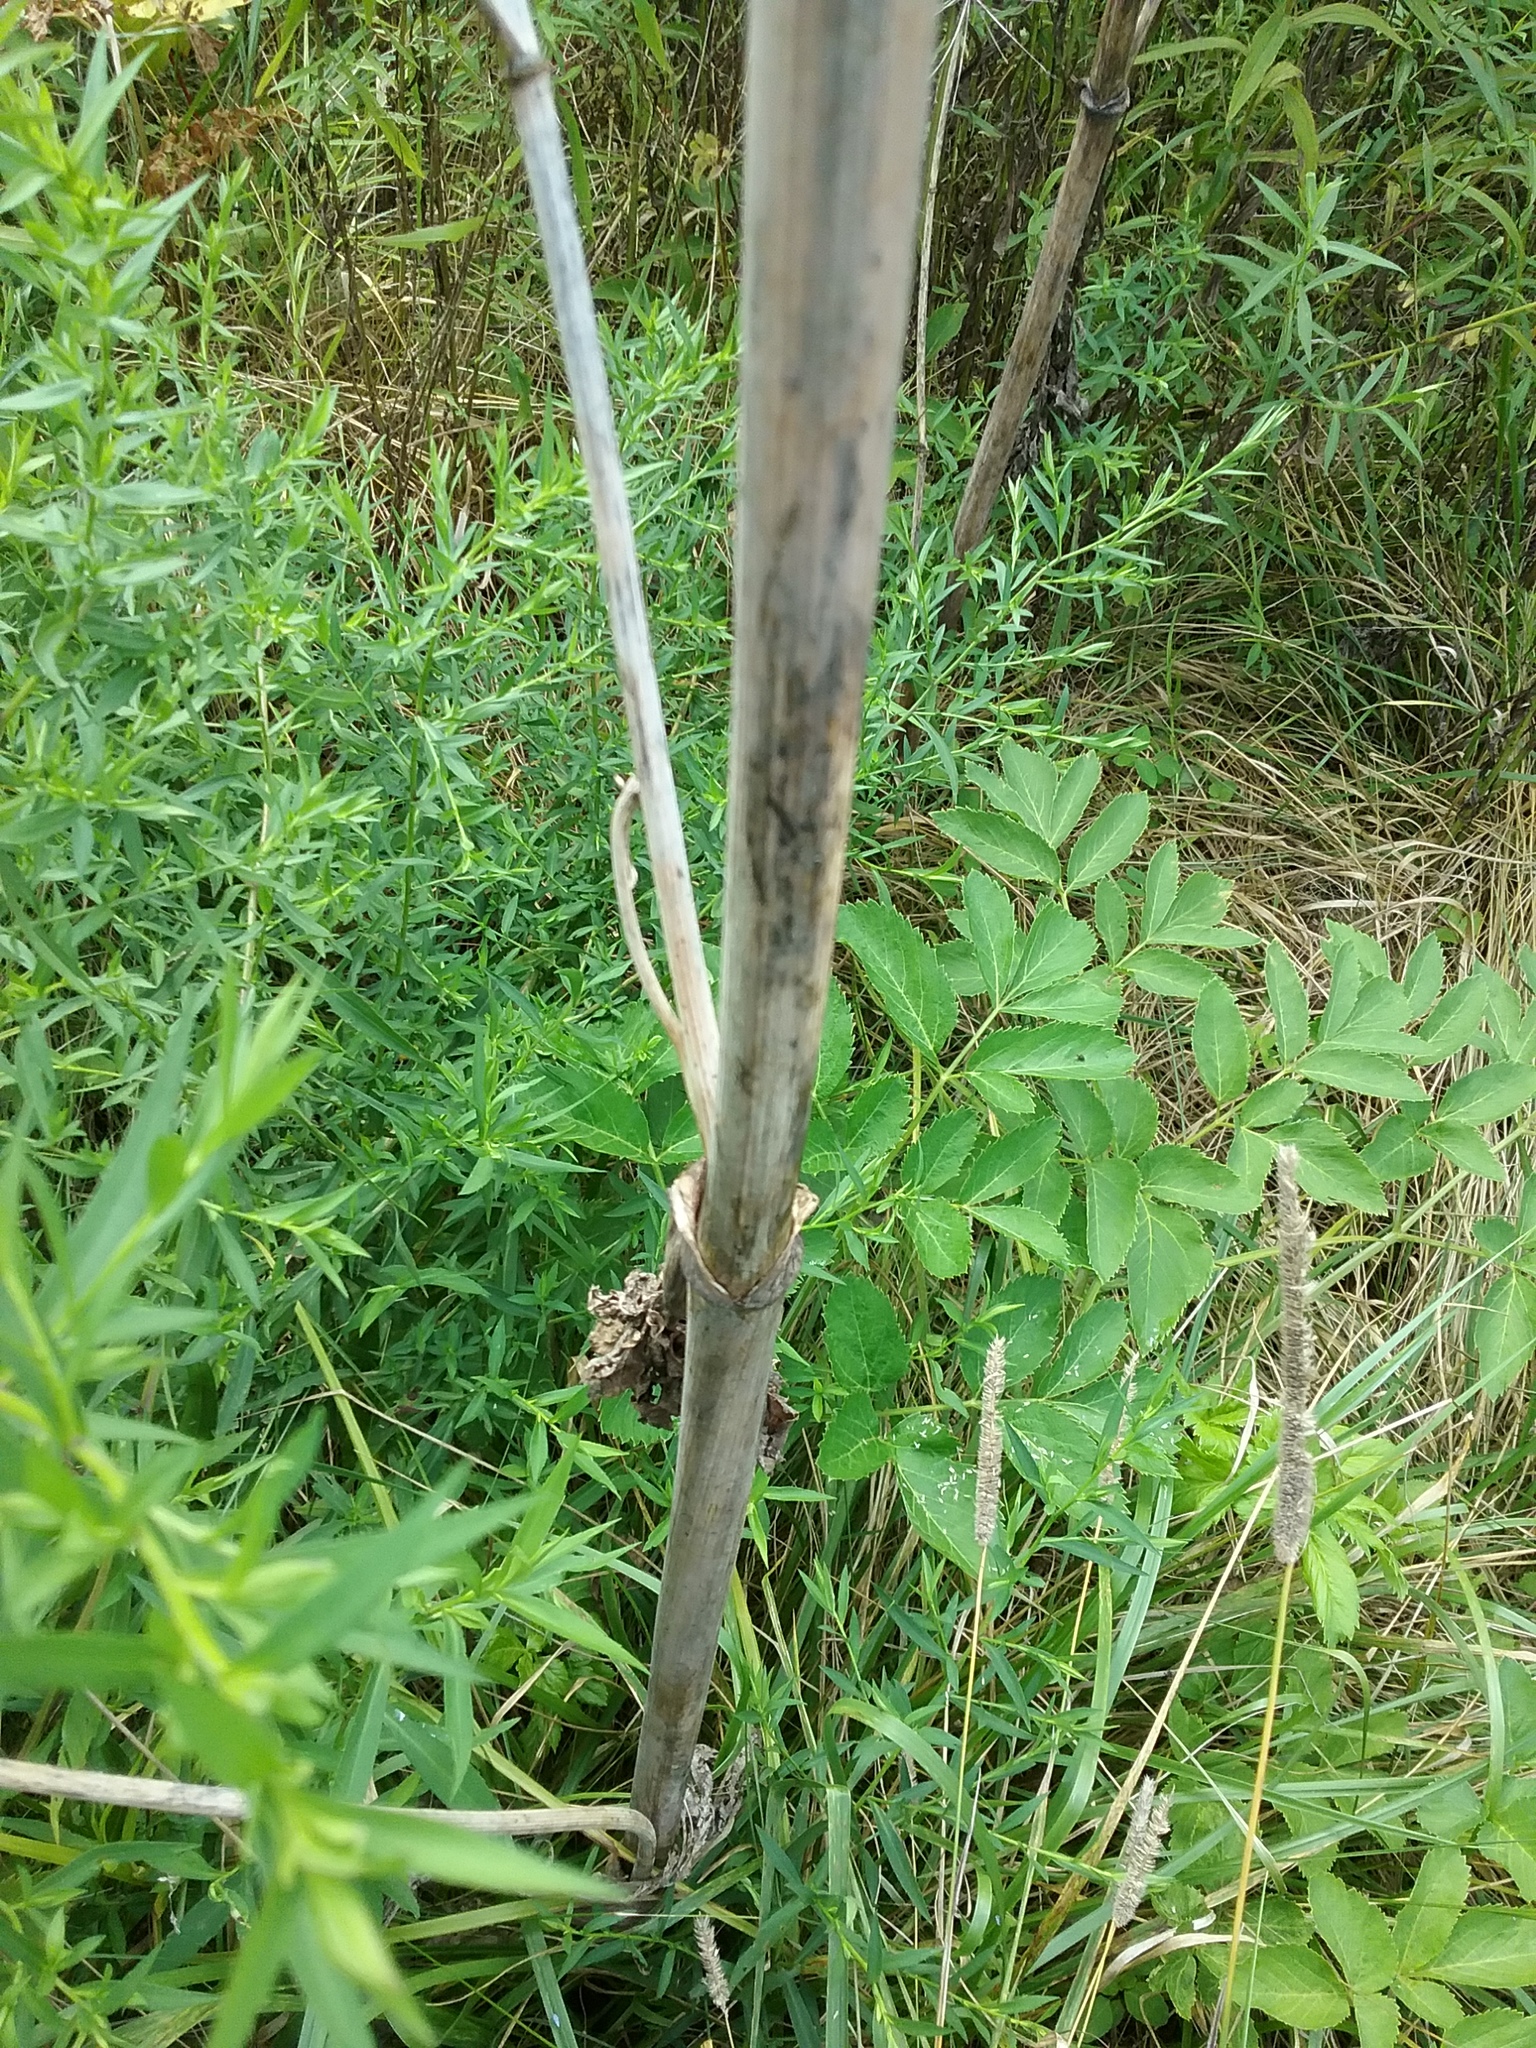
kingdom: Plantae
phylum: Tracheophyta
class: Magnoliopsida
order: Apiales
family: Apiaceae
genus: Angelica
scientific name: Angelica atropurpurea
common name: Great angelica
